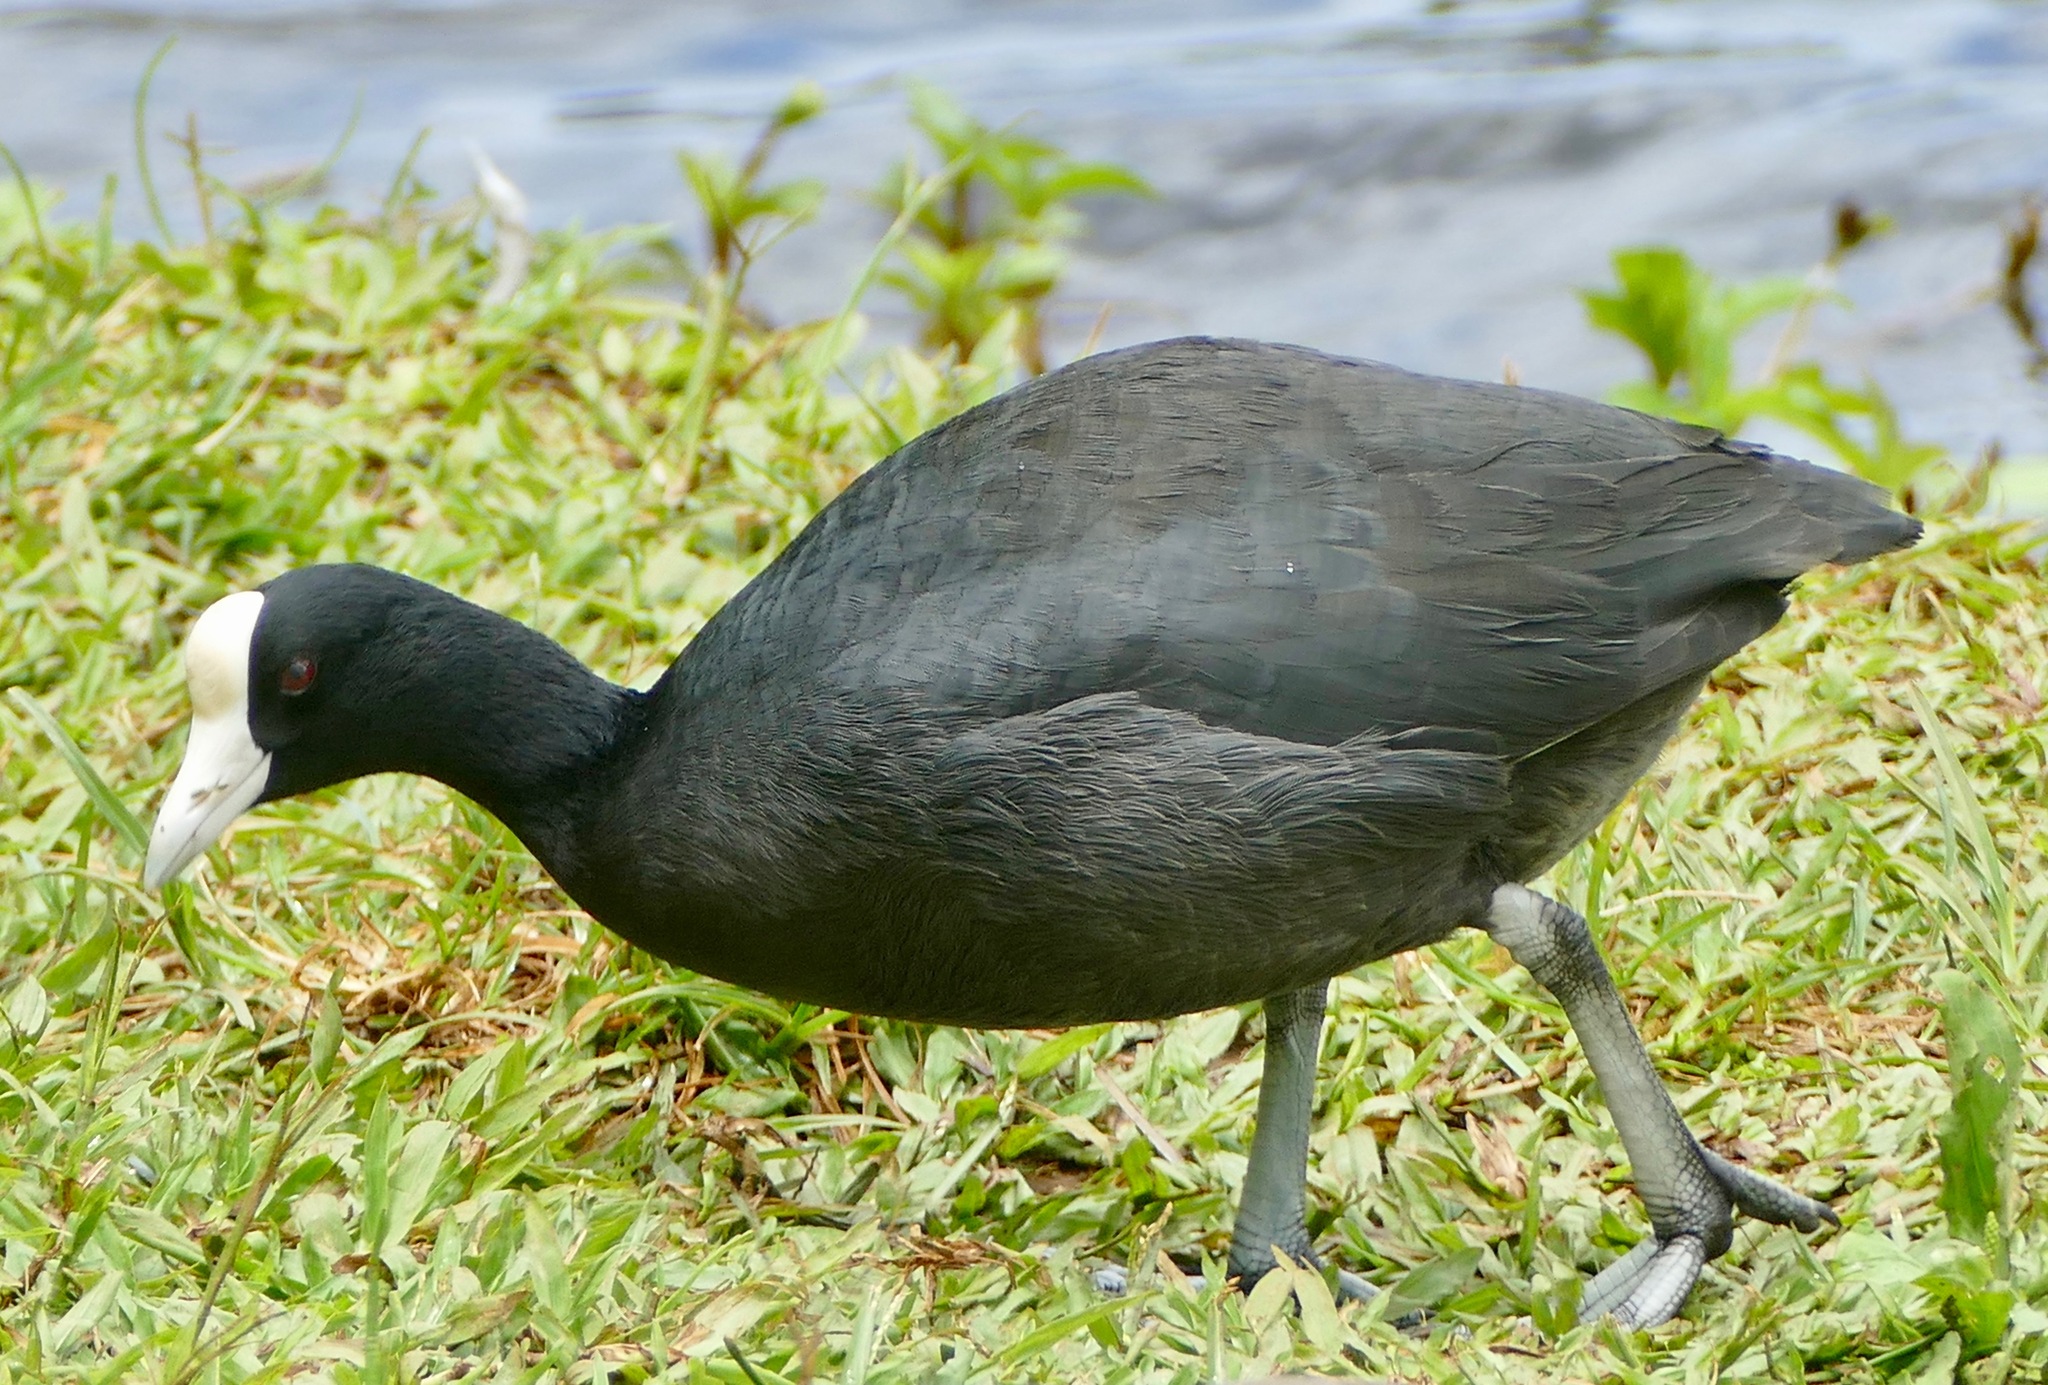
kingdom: Animalia
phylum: Chordata
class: Aves
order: Gruiformes
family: Rallidae
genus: Fulica
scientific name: Fulica alai
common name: Hawaiian coot
